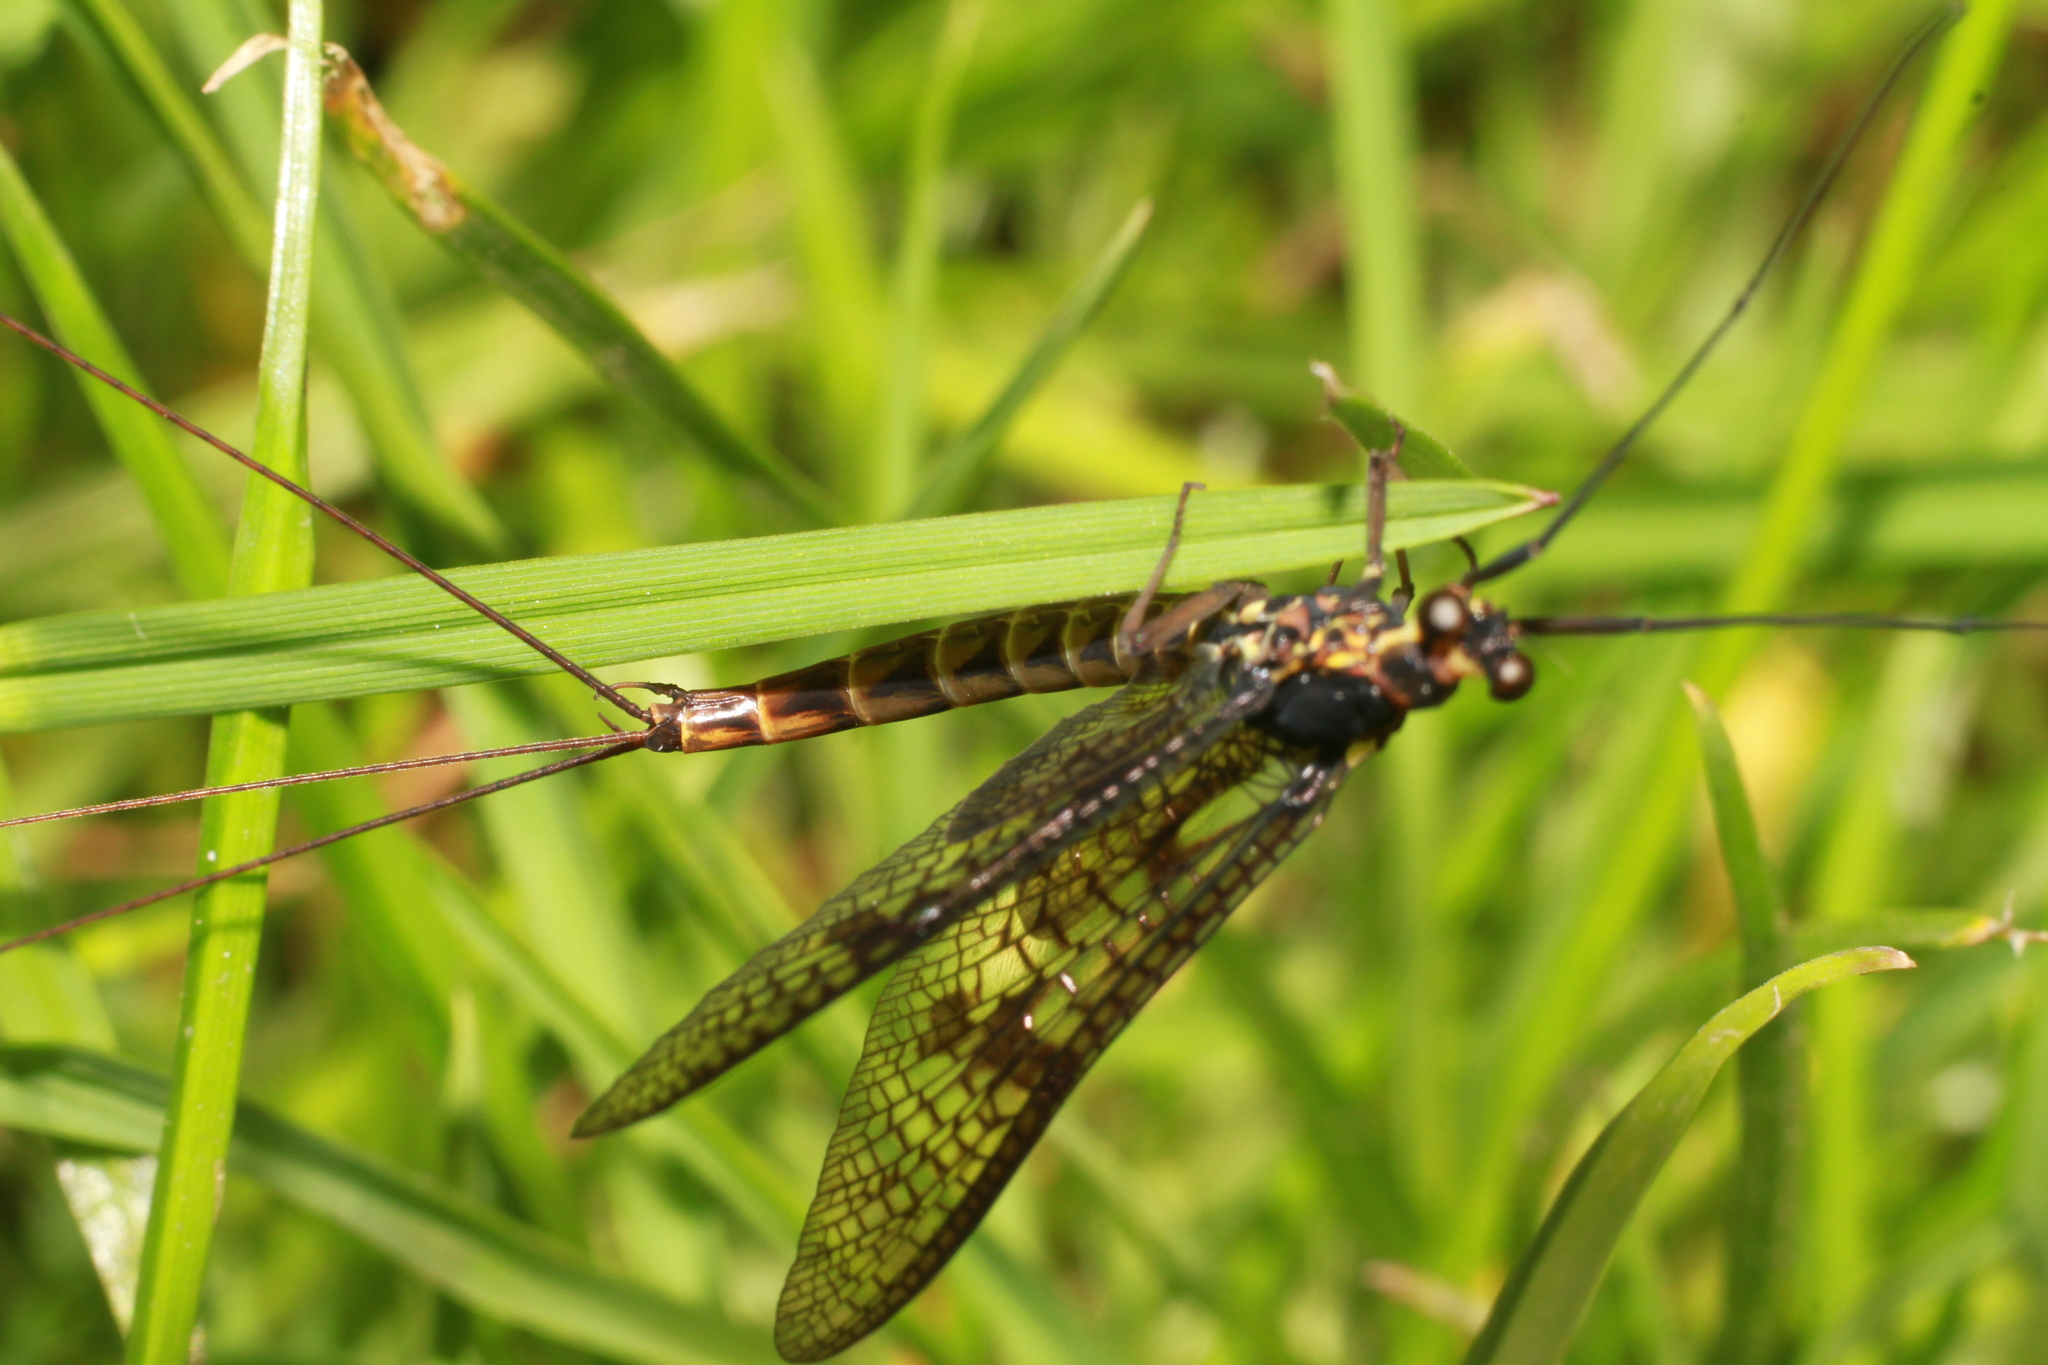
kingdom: Animalia
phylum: Arthropoda
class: Insecta
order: Ephemeroptera
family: Ephemeridae
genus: Ephemera
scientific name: Ephemera vulgata
